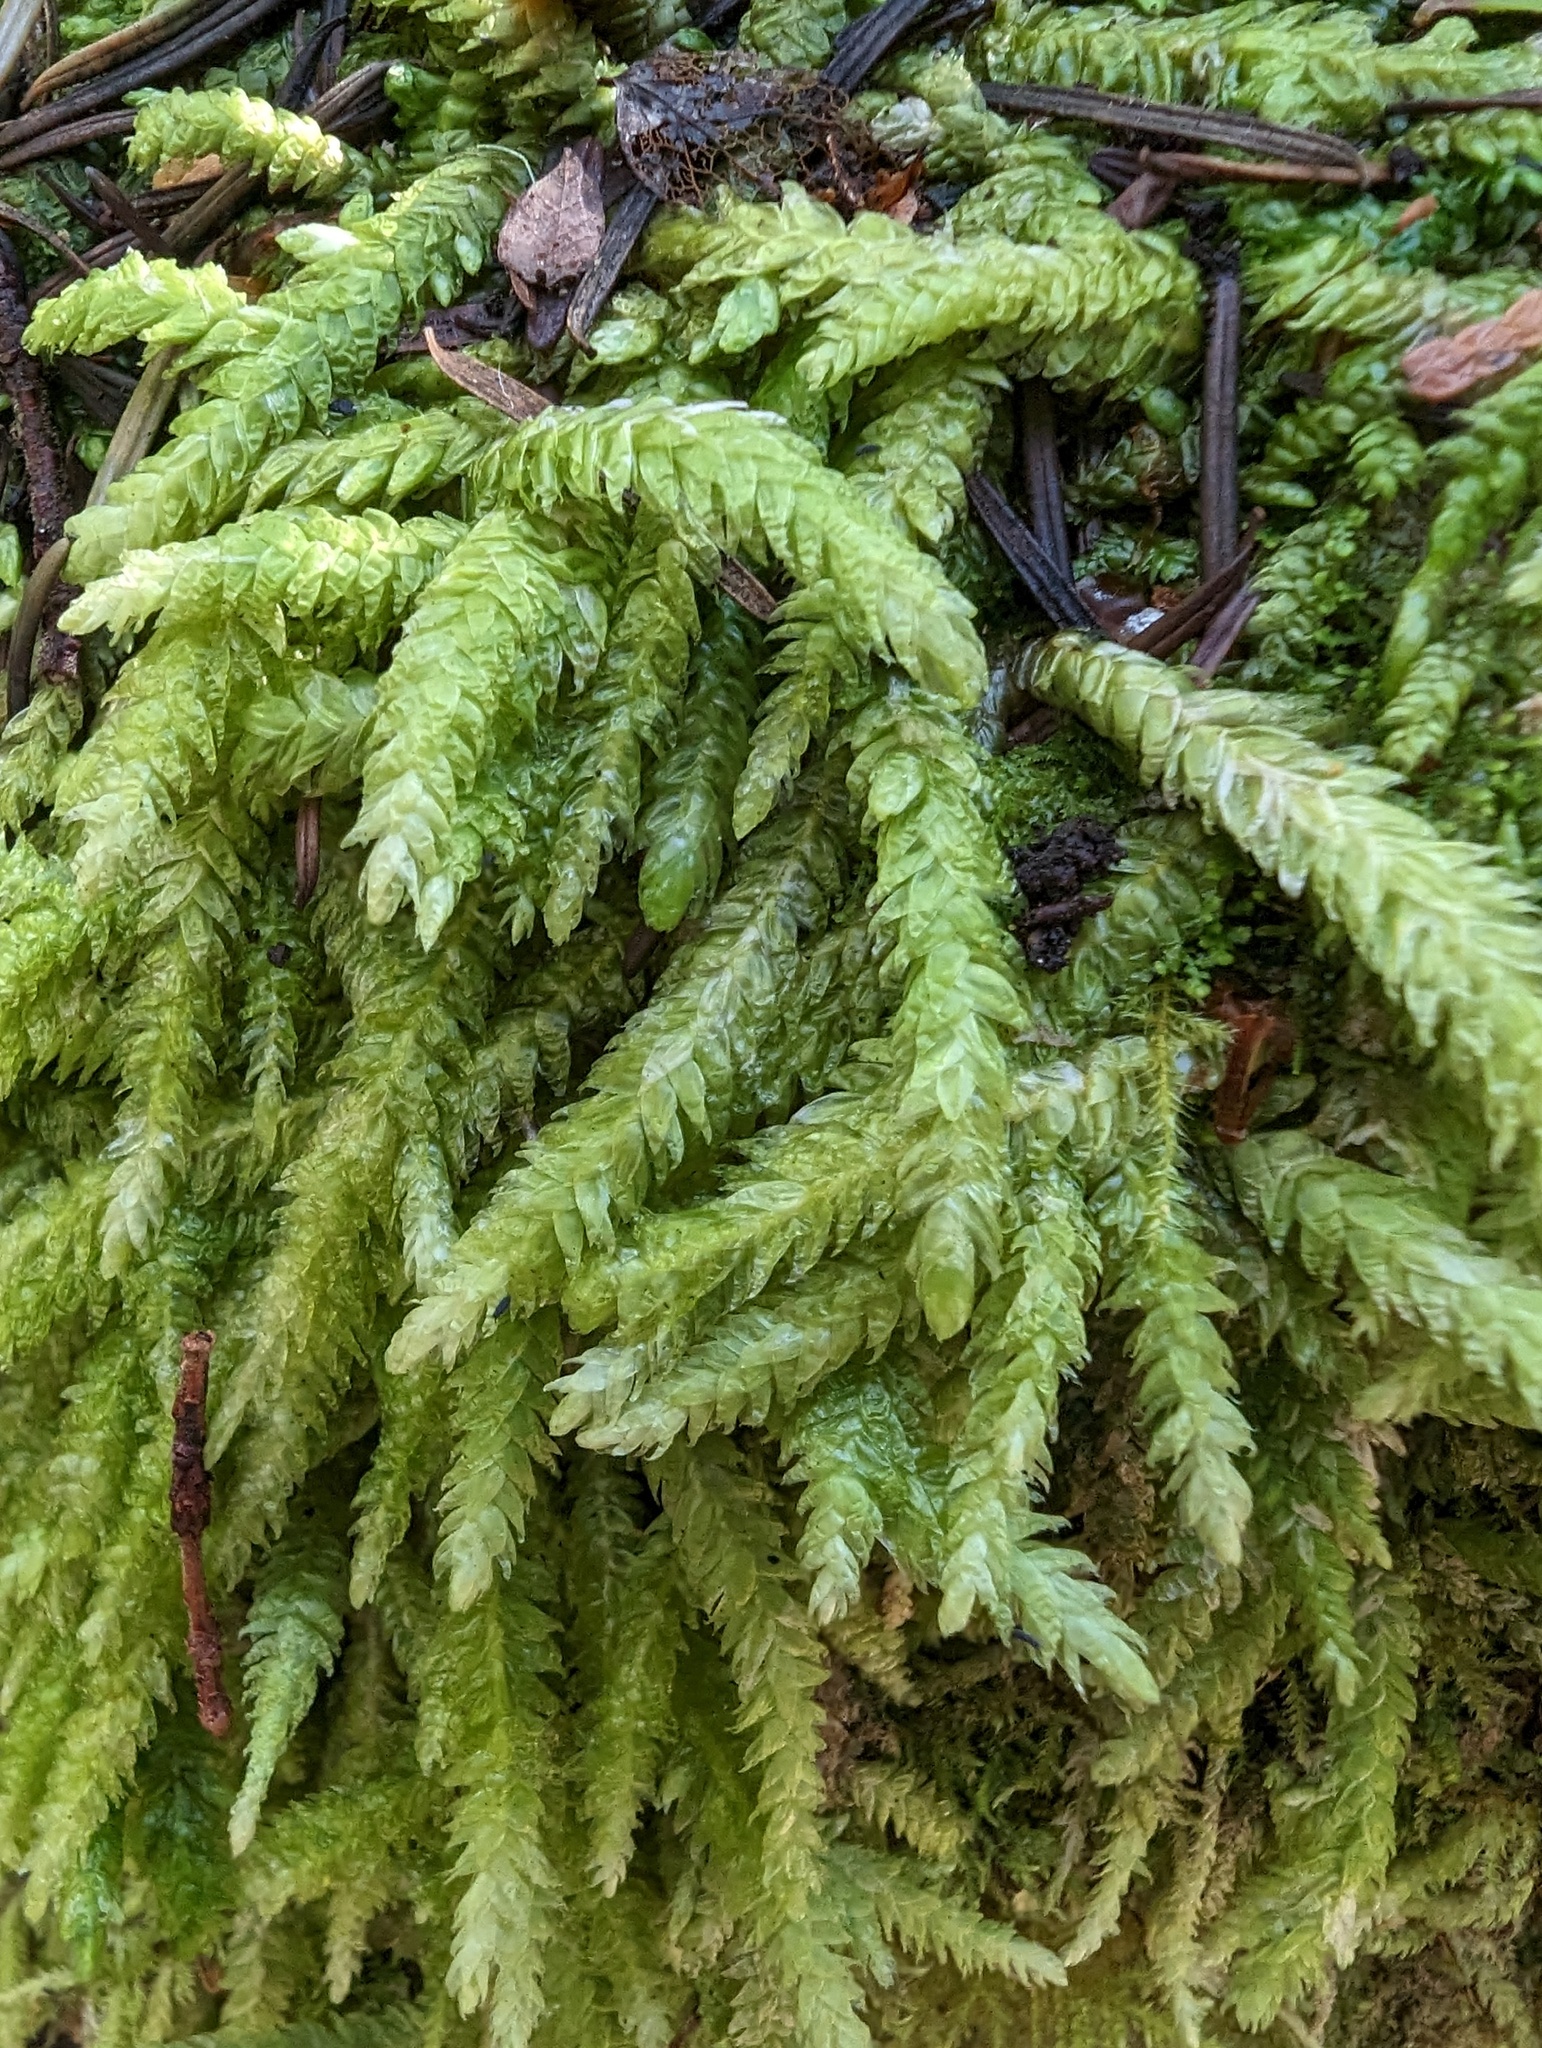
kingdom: Plantae
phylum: Bryophyta
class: Bryopsida
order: Hypnales
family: Plagiotheciaceae
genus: Plagiothecium
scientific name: Plagiothecium undulatum
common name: Waved silk-moss
